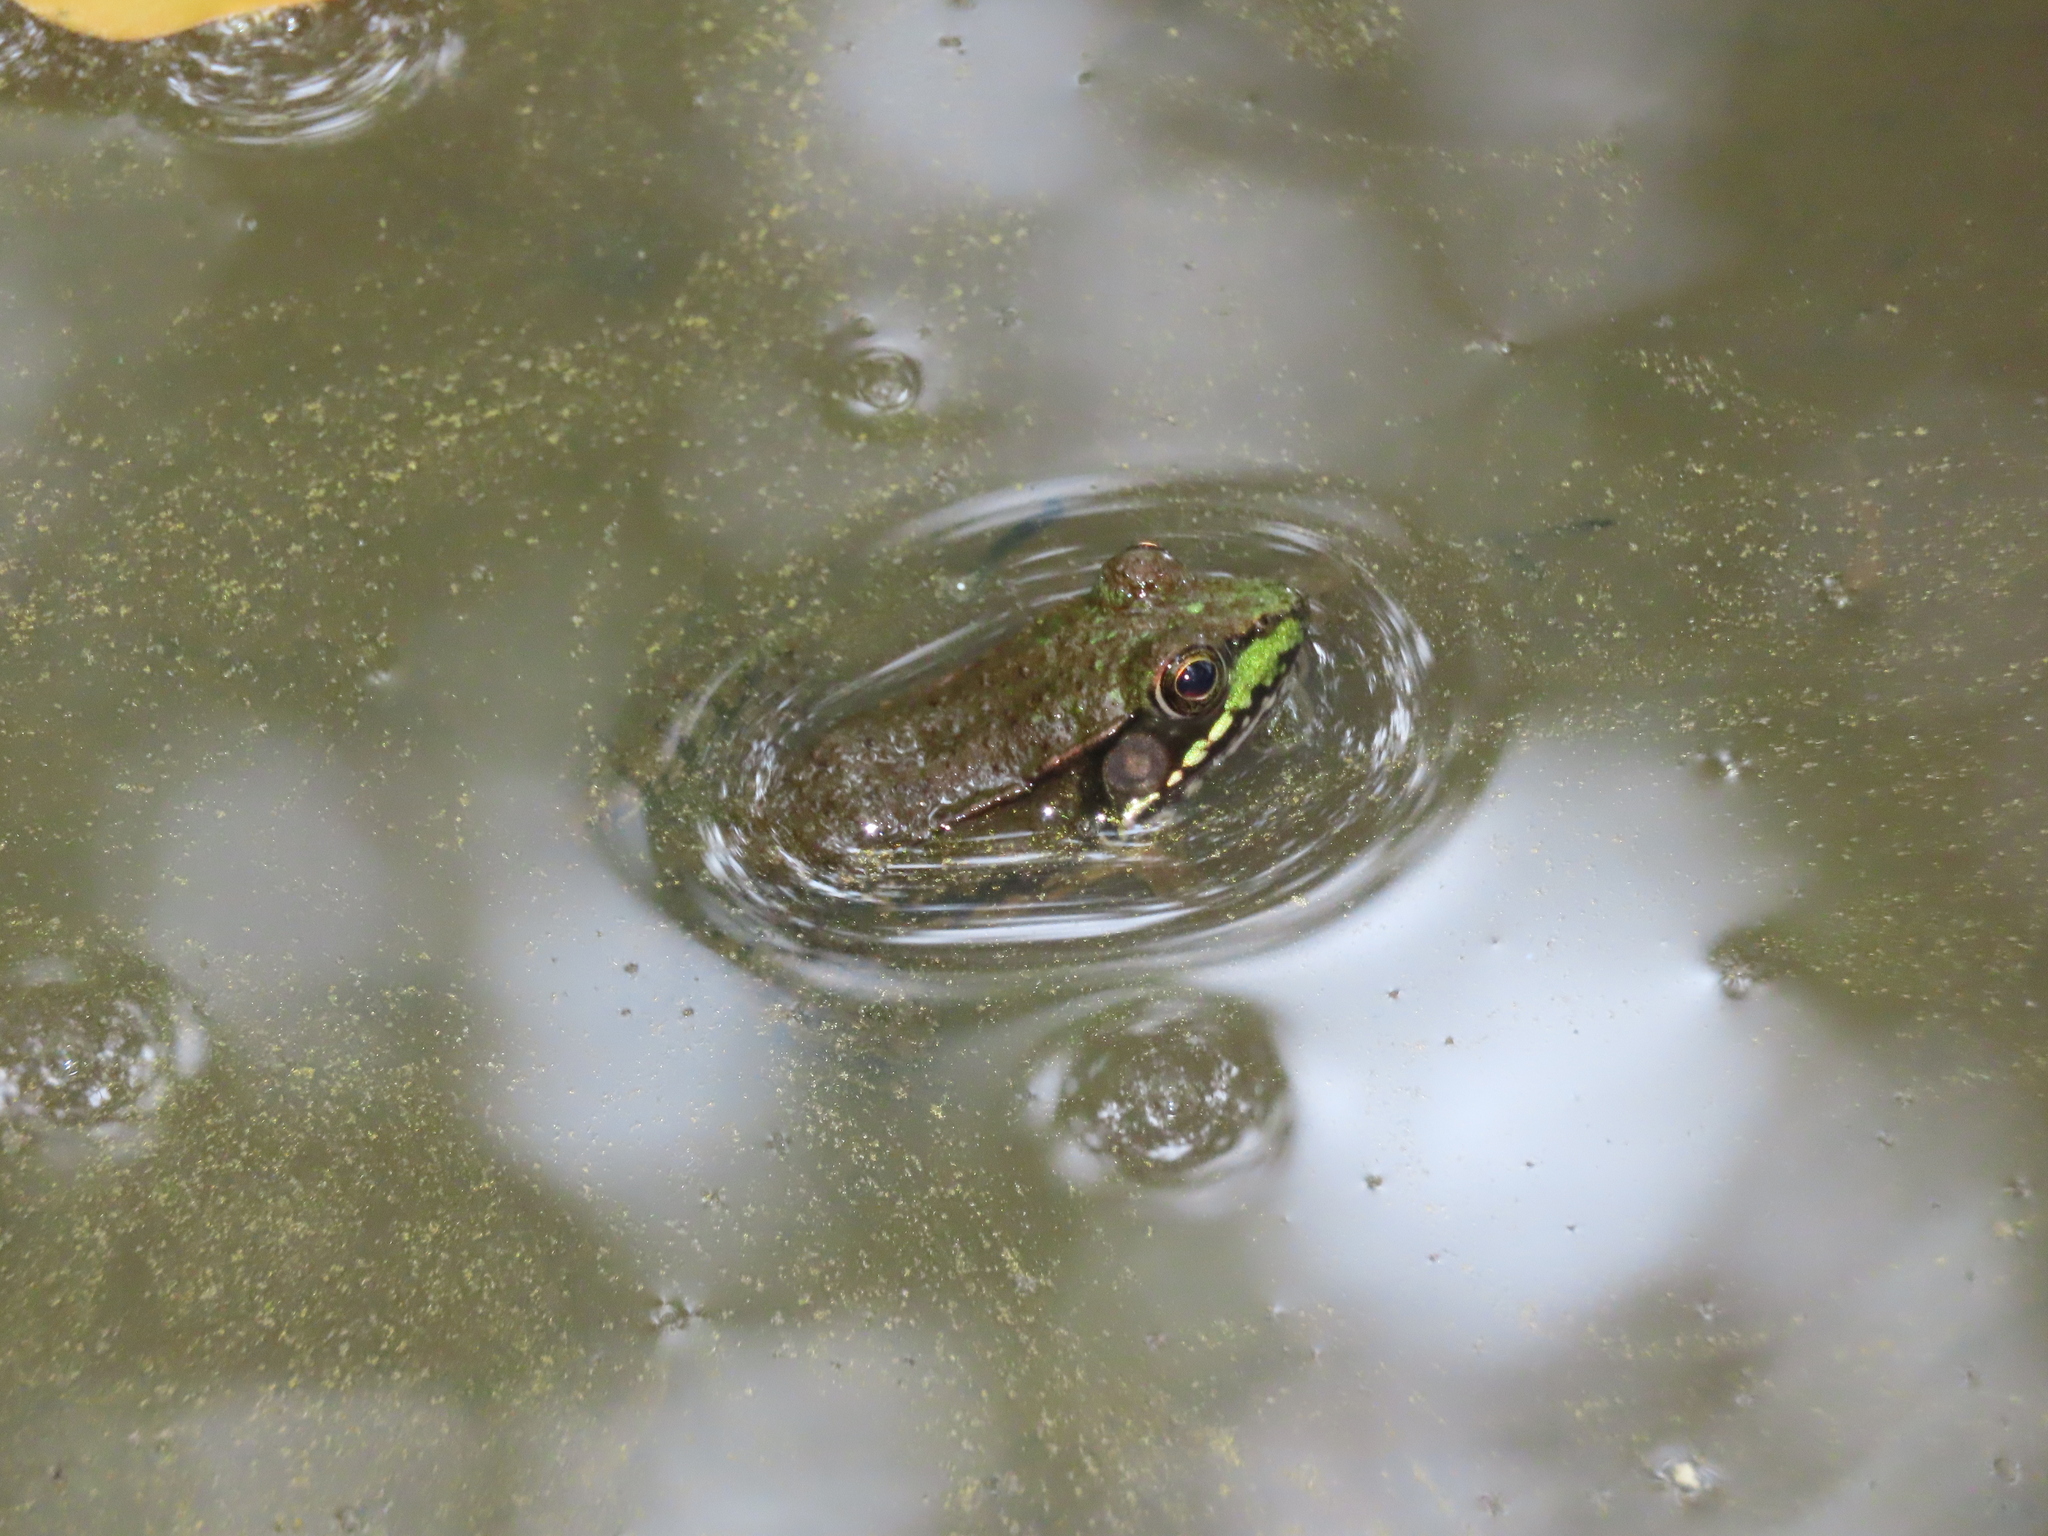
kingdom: Animalia
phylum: Chordata
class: Amphibia
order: Anura
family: Ranidae
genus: Lithobates
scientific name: Lithobates clamitans
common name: Green frog
